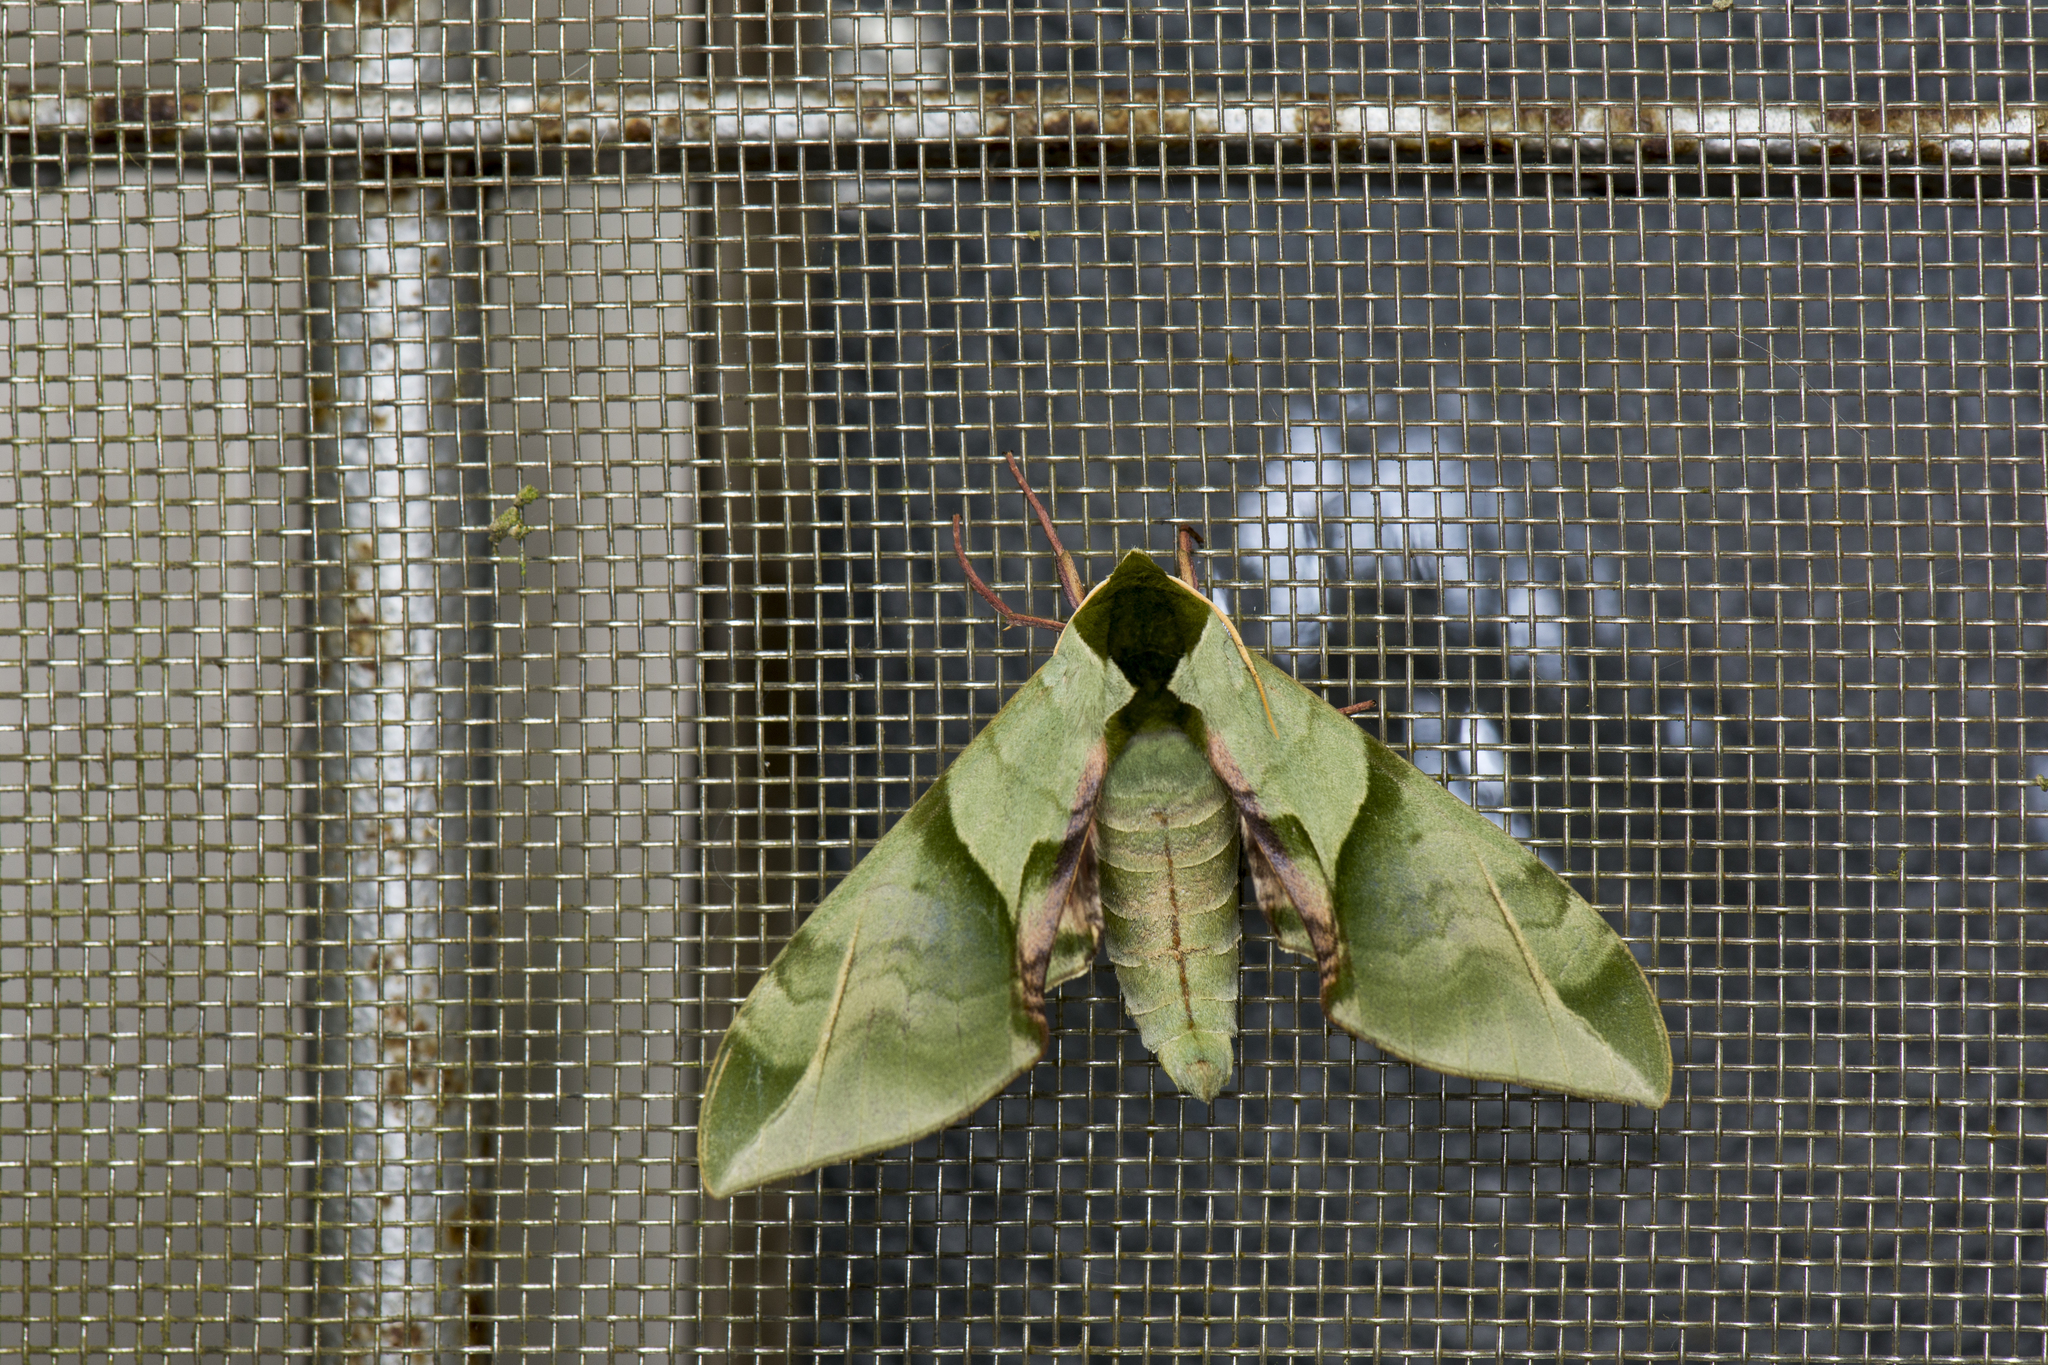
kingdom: Animalia
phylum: Arthropoda
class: Insecta
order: Lepidoptera
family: Sphingidae
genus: Callambulyx
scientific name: Callambulyx tatarinovii
